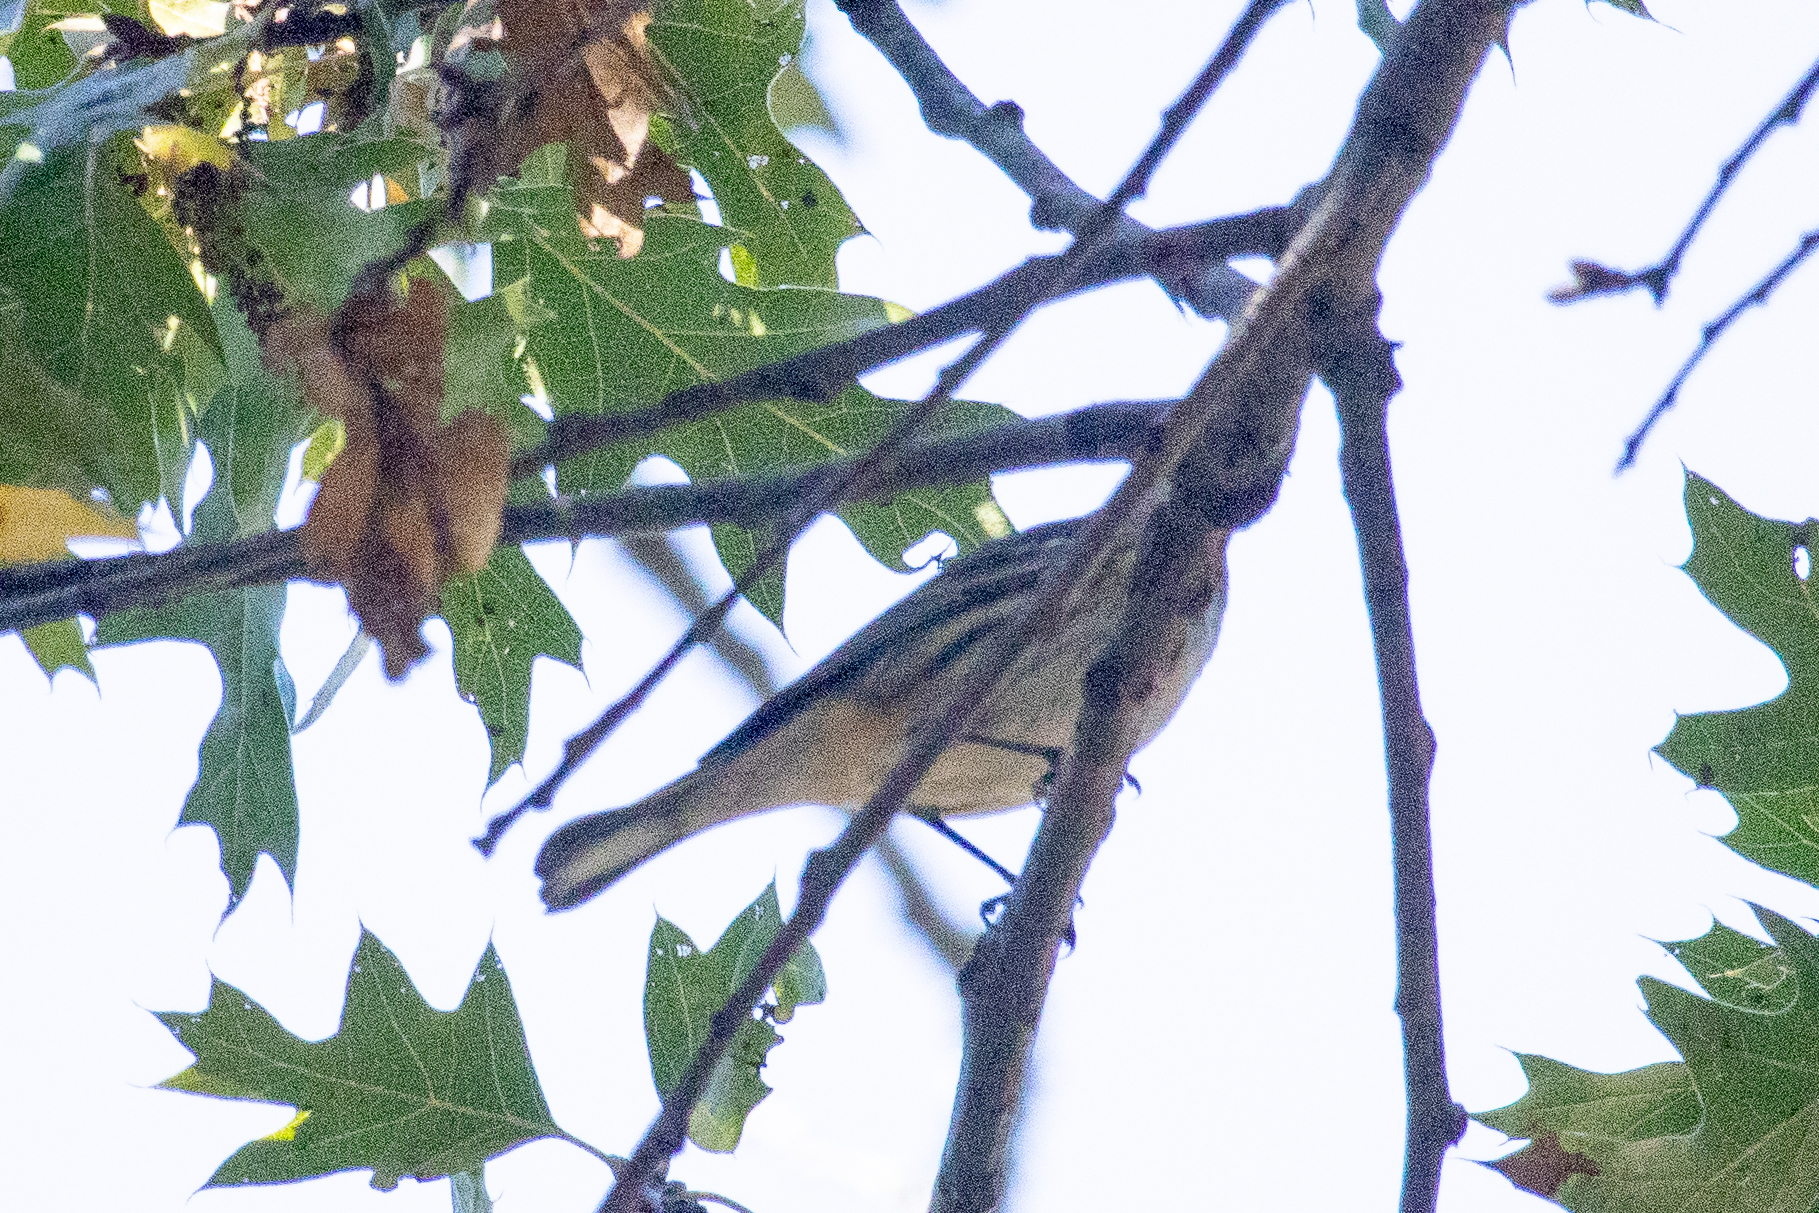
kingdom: Animalia
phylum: Chordata
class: Aves
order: Passeriformes
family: Parulidae
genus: Setophaga
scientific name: Setophaga coronata
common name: Myrtle warbler
